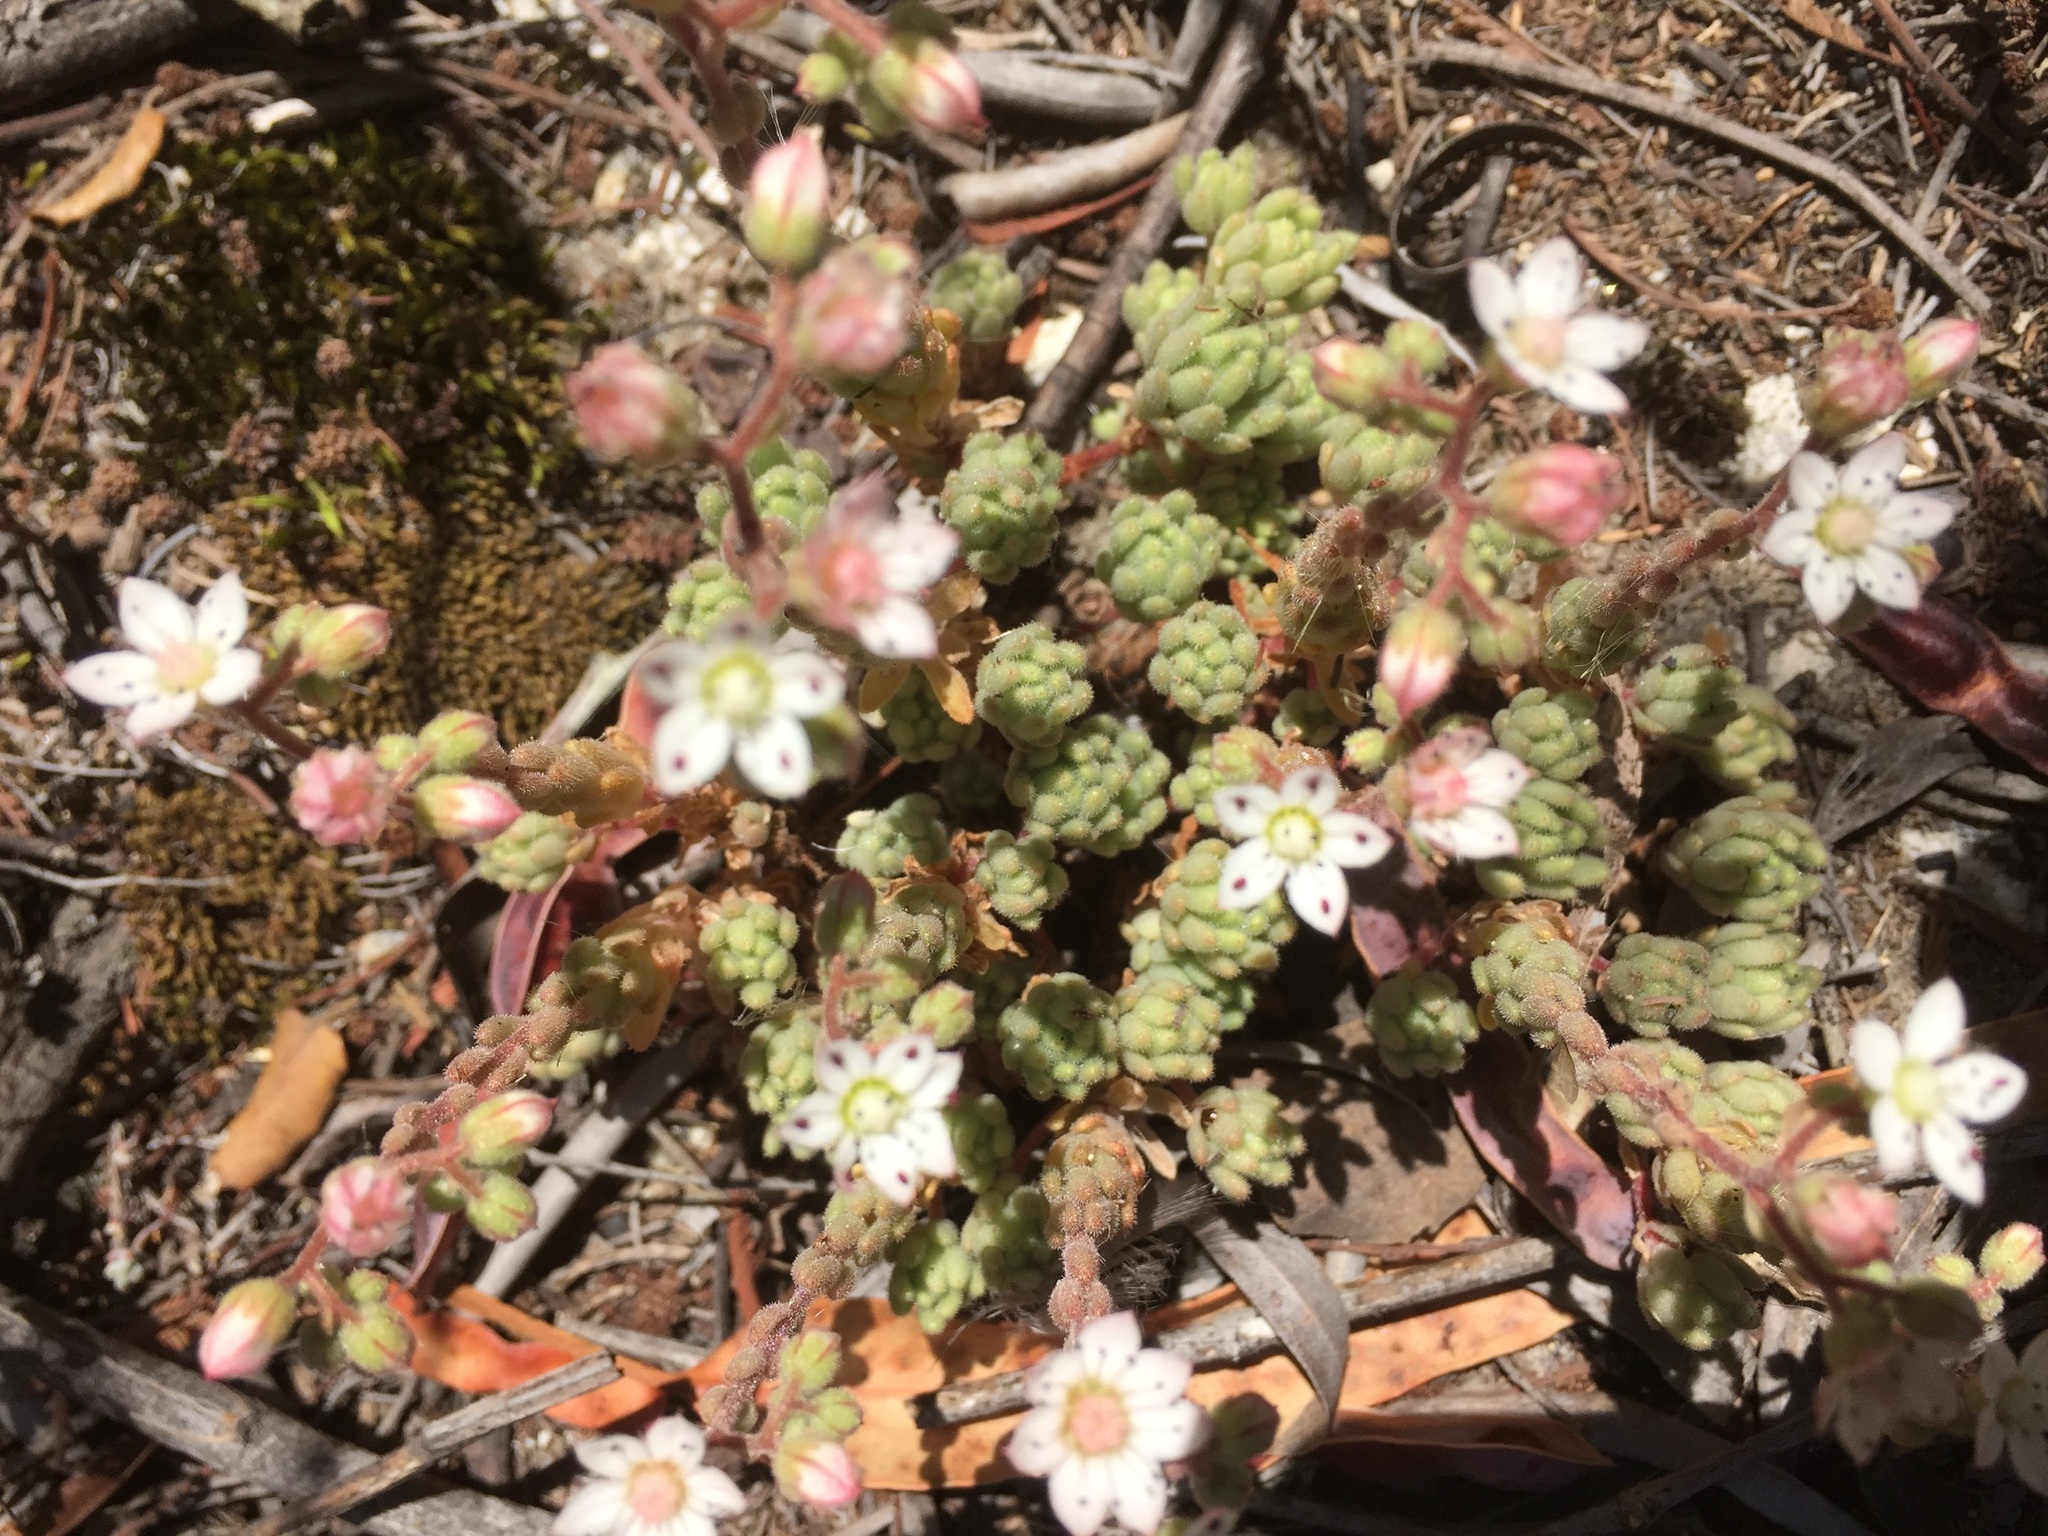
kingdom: Plantae
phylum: Tracheophyta
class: Magnoliopsida
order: Saxifragales
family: Crassulaceae
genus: Sedum
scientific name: Sedum hirsutum
